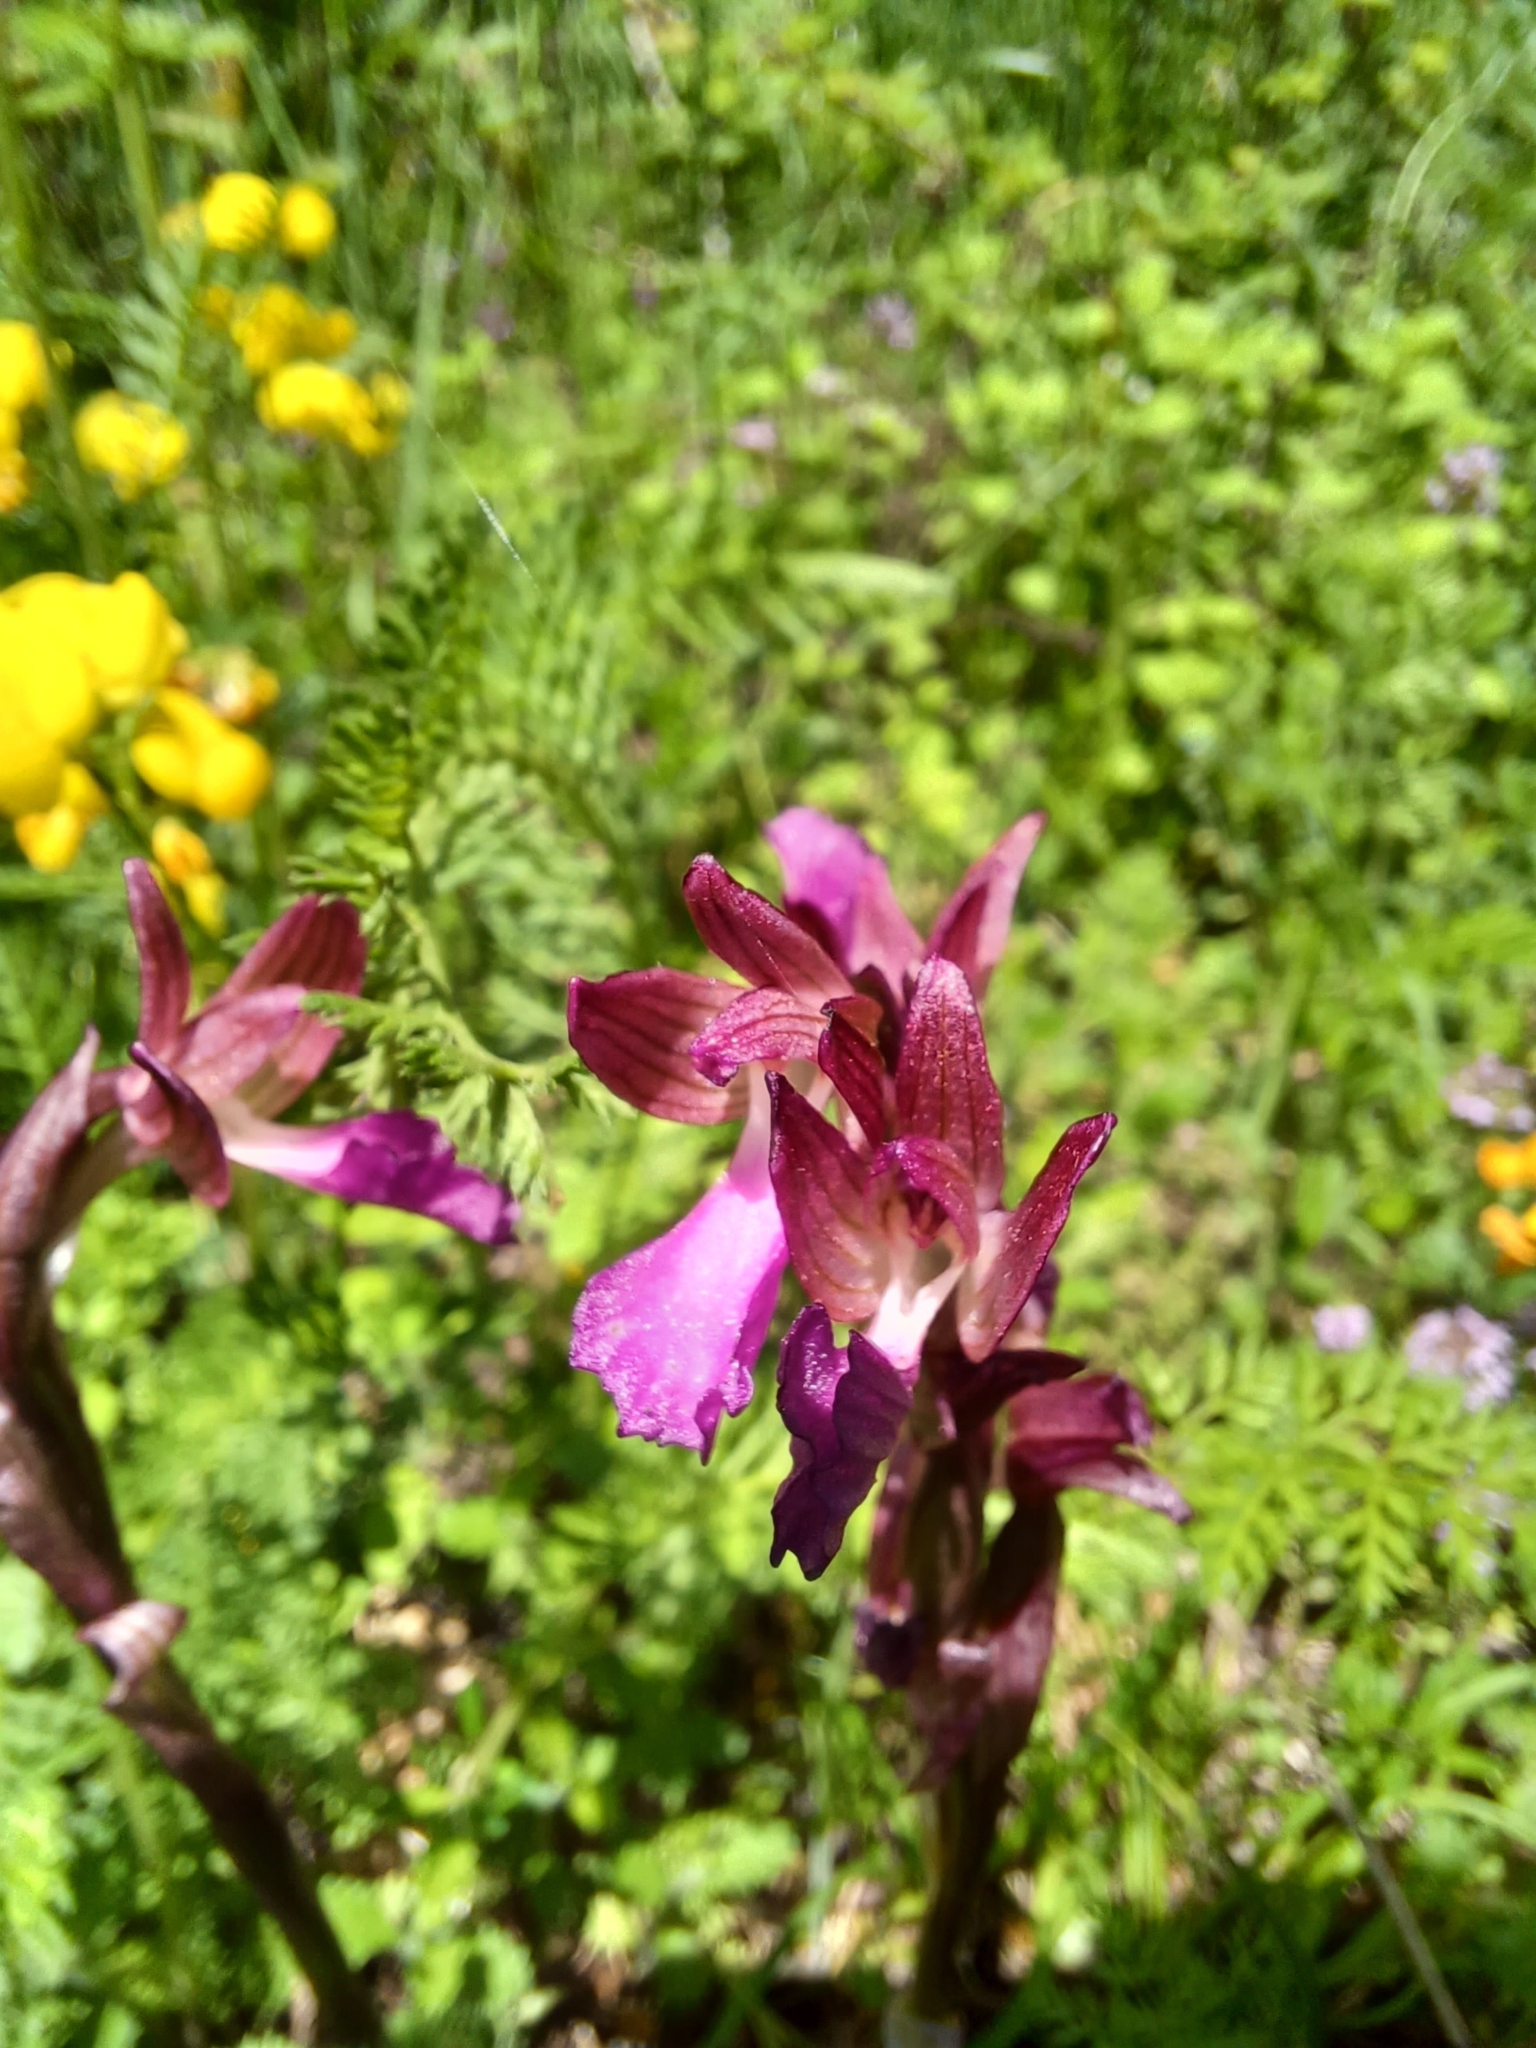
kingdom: Plantae
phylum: Tracheophyta
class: Liliopsida
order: Asparagales
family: Orchidaceae
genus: Anacamptis
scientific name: Anacamptis papilionacea
